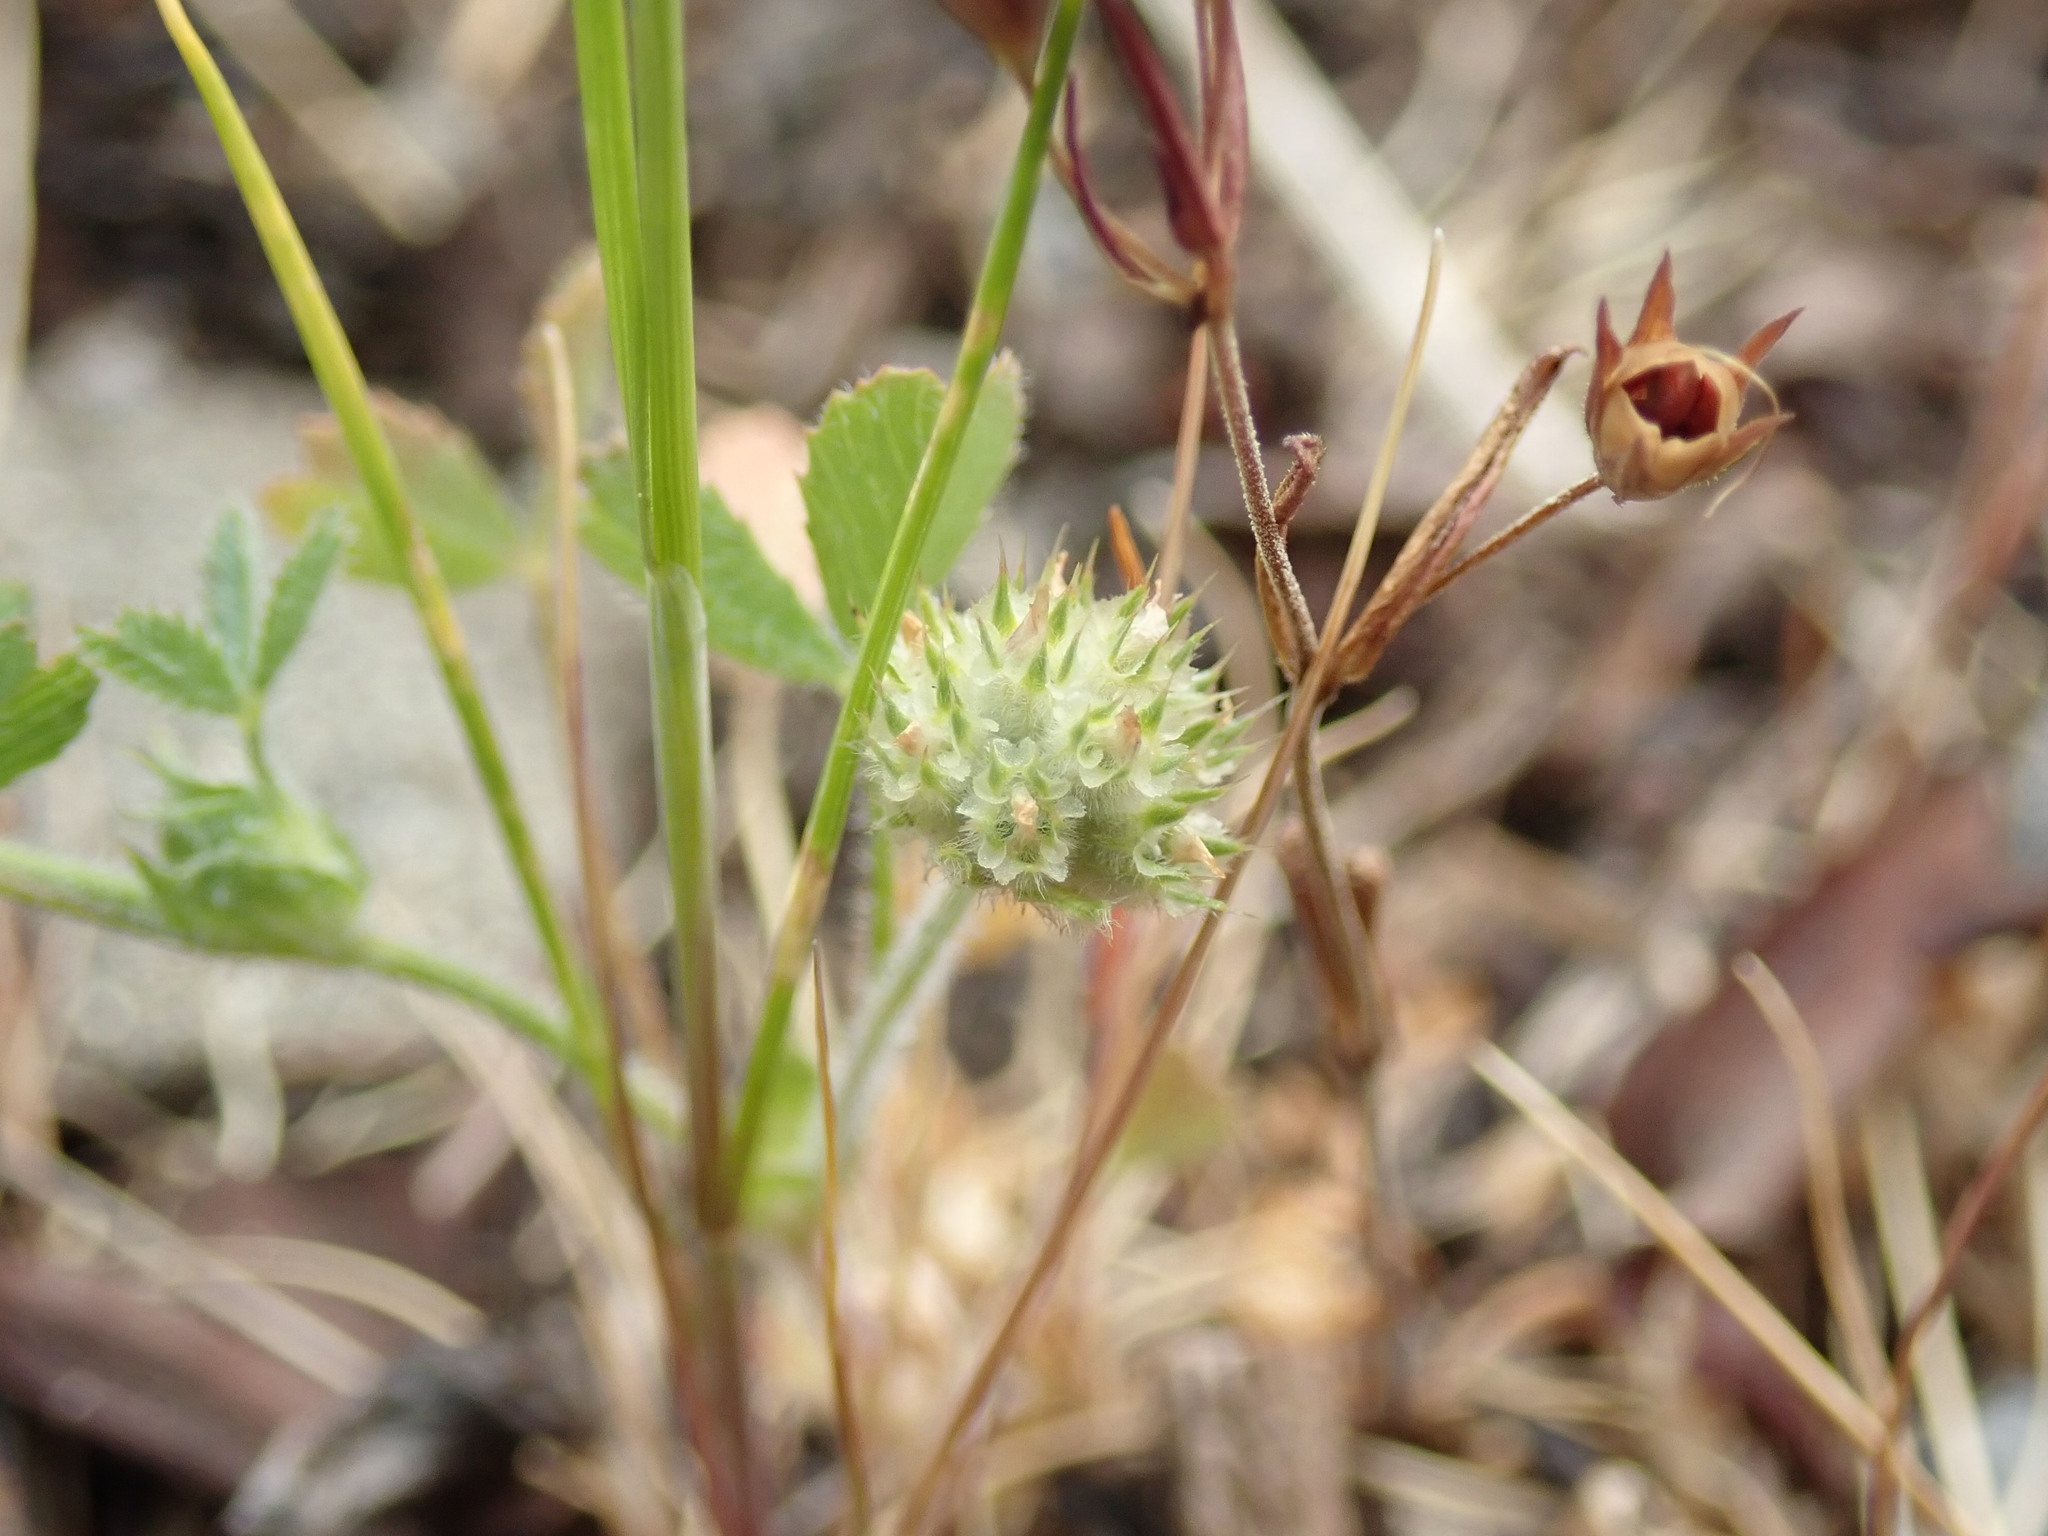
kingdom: Plantae
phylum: Tracheophyta
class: Magnoliopsida
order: Fabales
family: Fabaceae
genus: Trifolium
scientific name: Trifolium microcephalum
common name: Maiden clover
